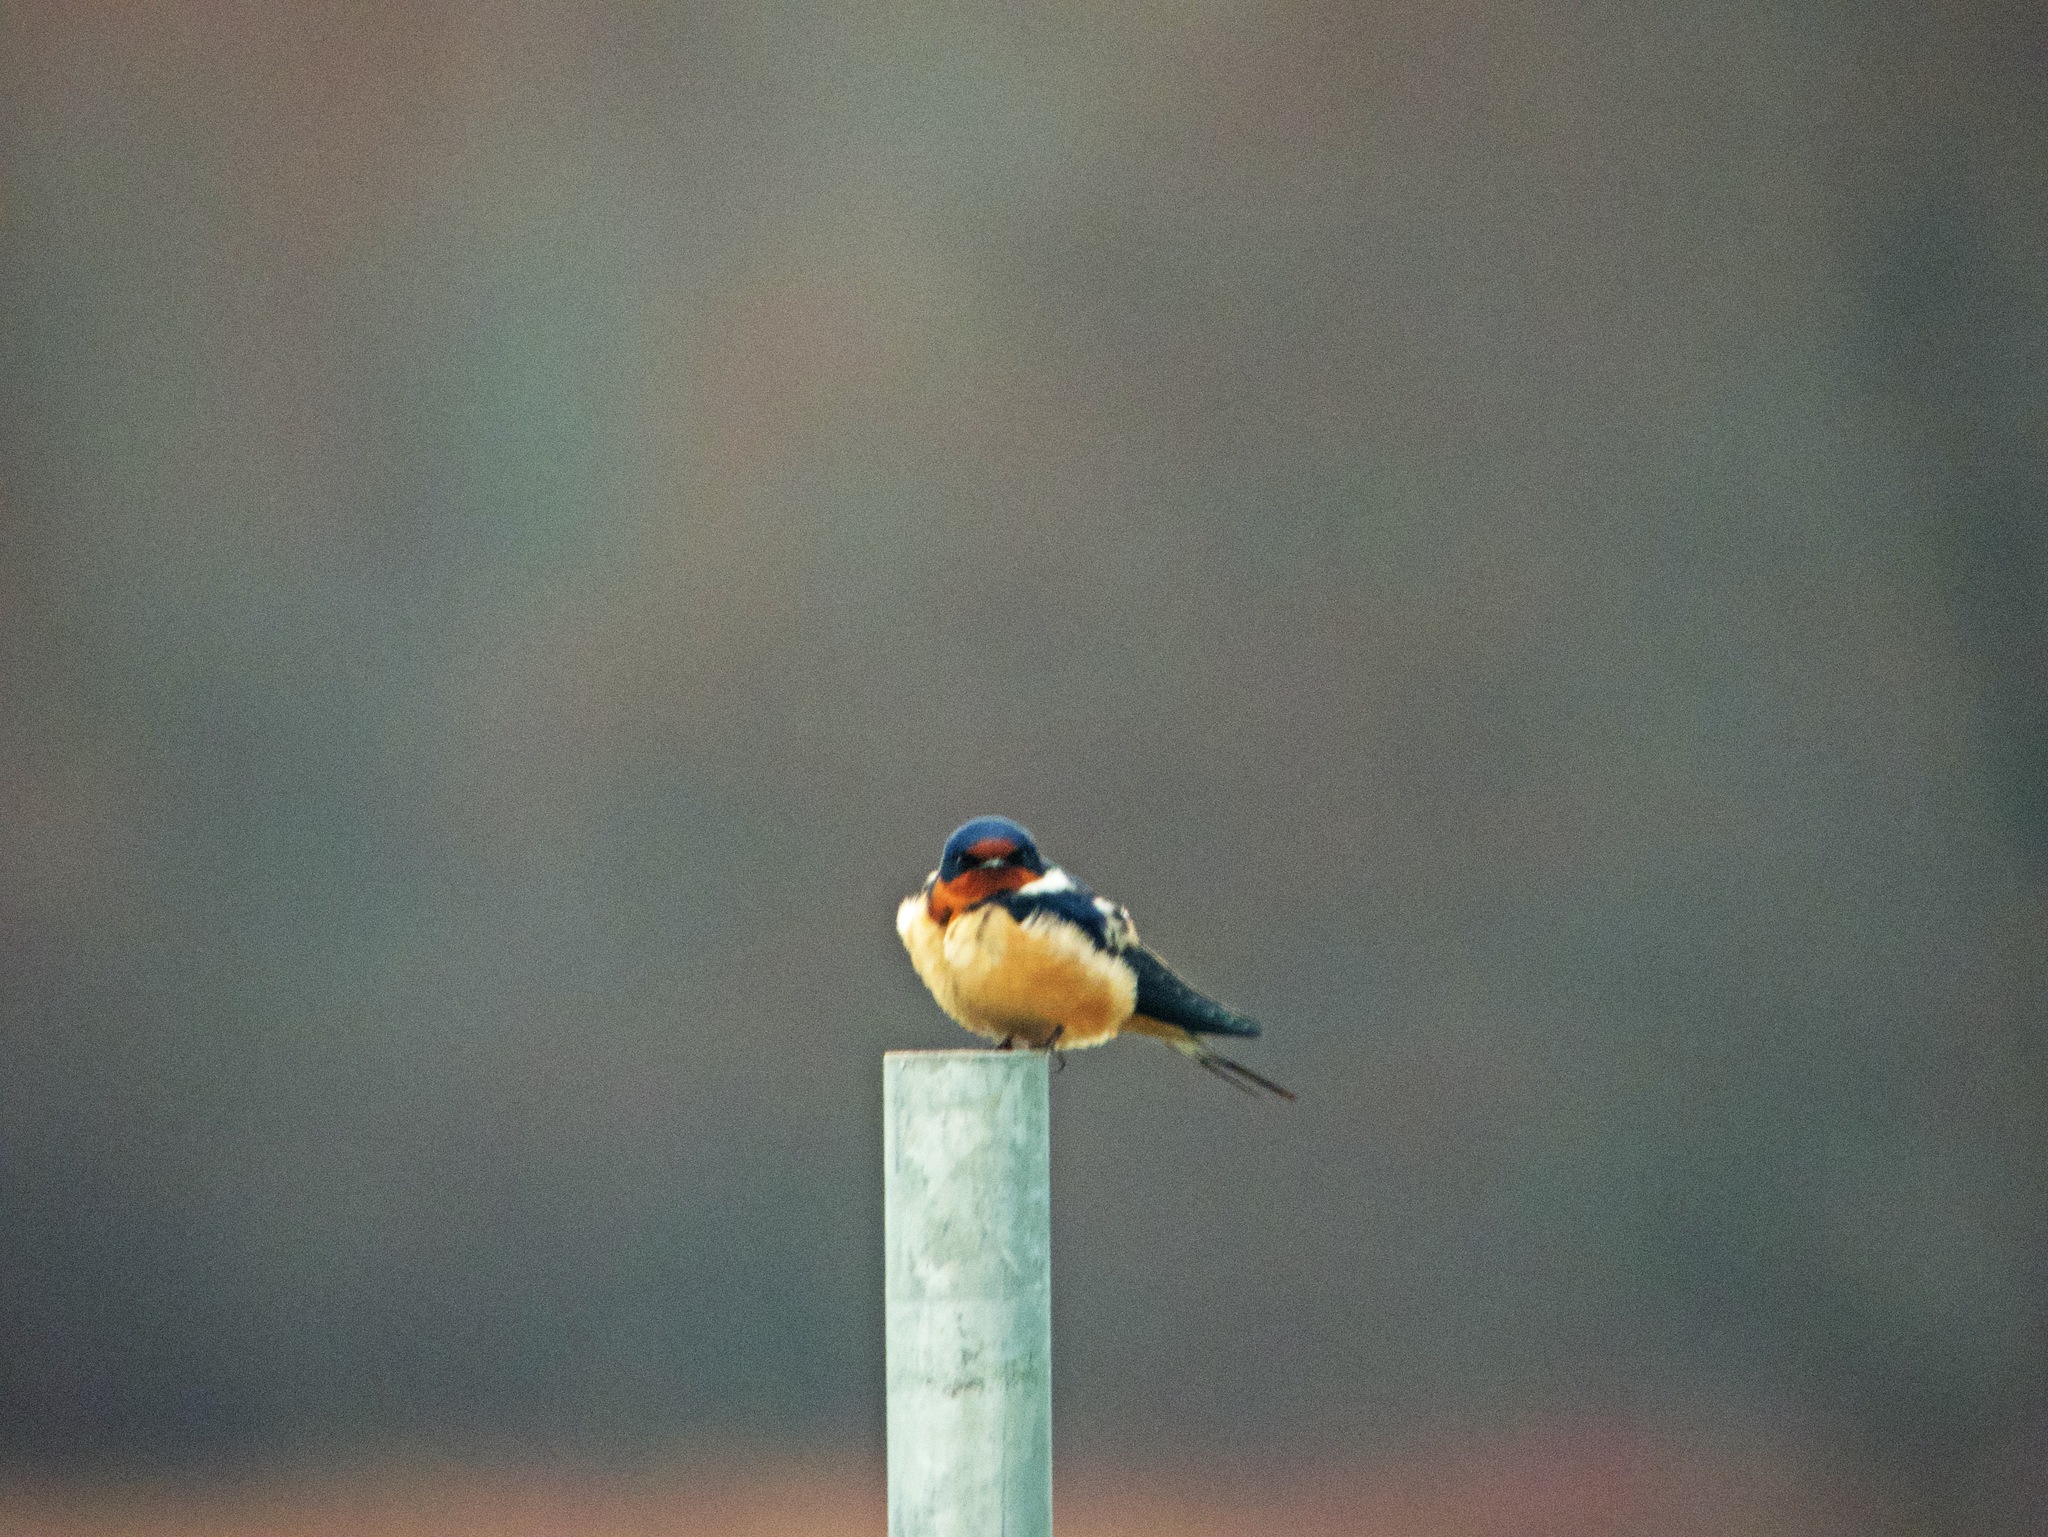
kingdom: Animalia
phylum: Chordata
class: Aves
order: Passeriformes
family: Hirundinidae
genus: Hirundo
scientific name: Hirundo rustica
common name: Barn swallow
